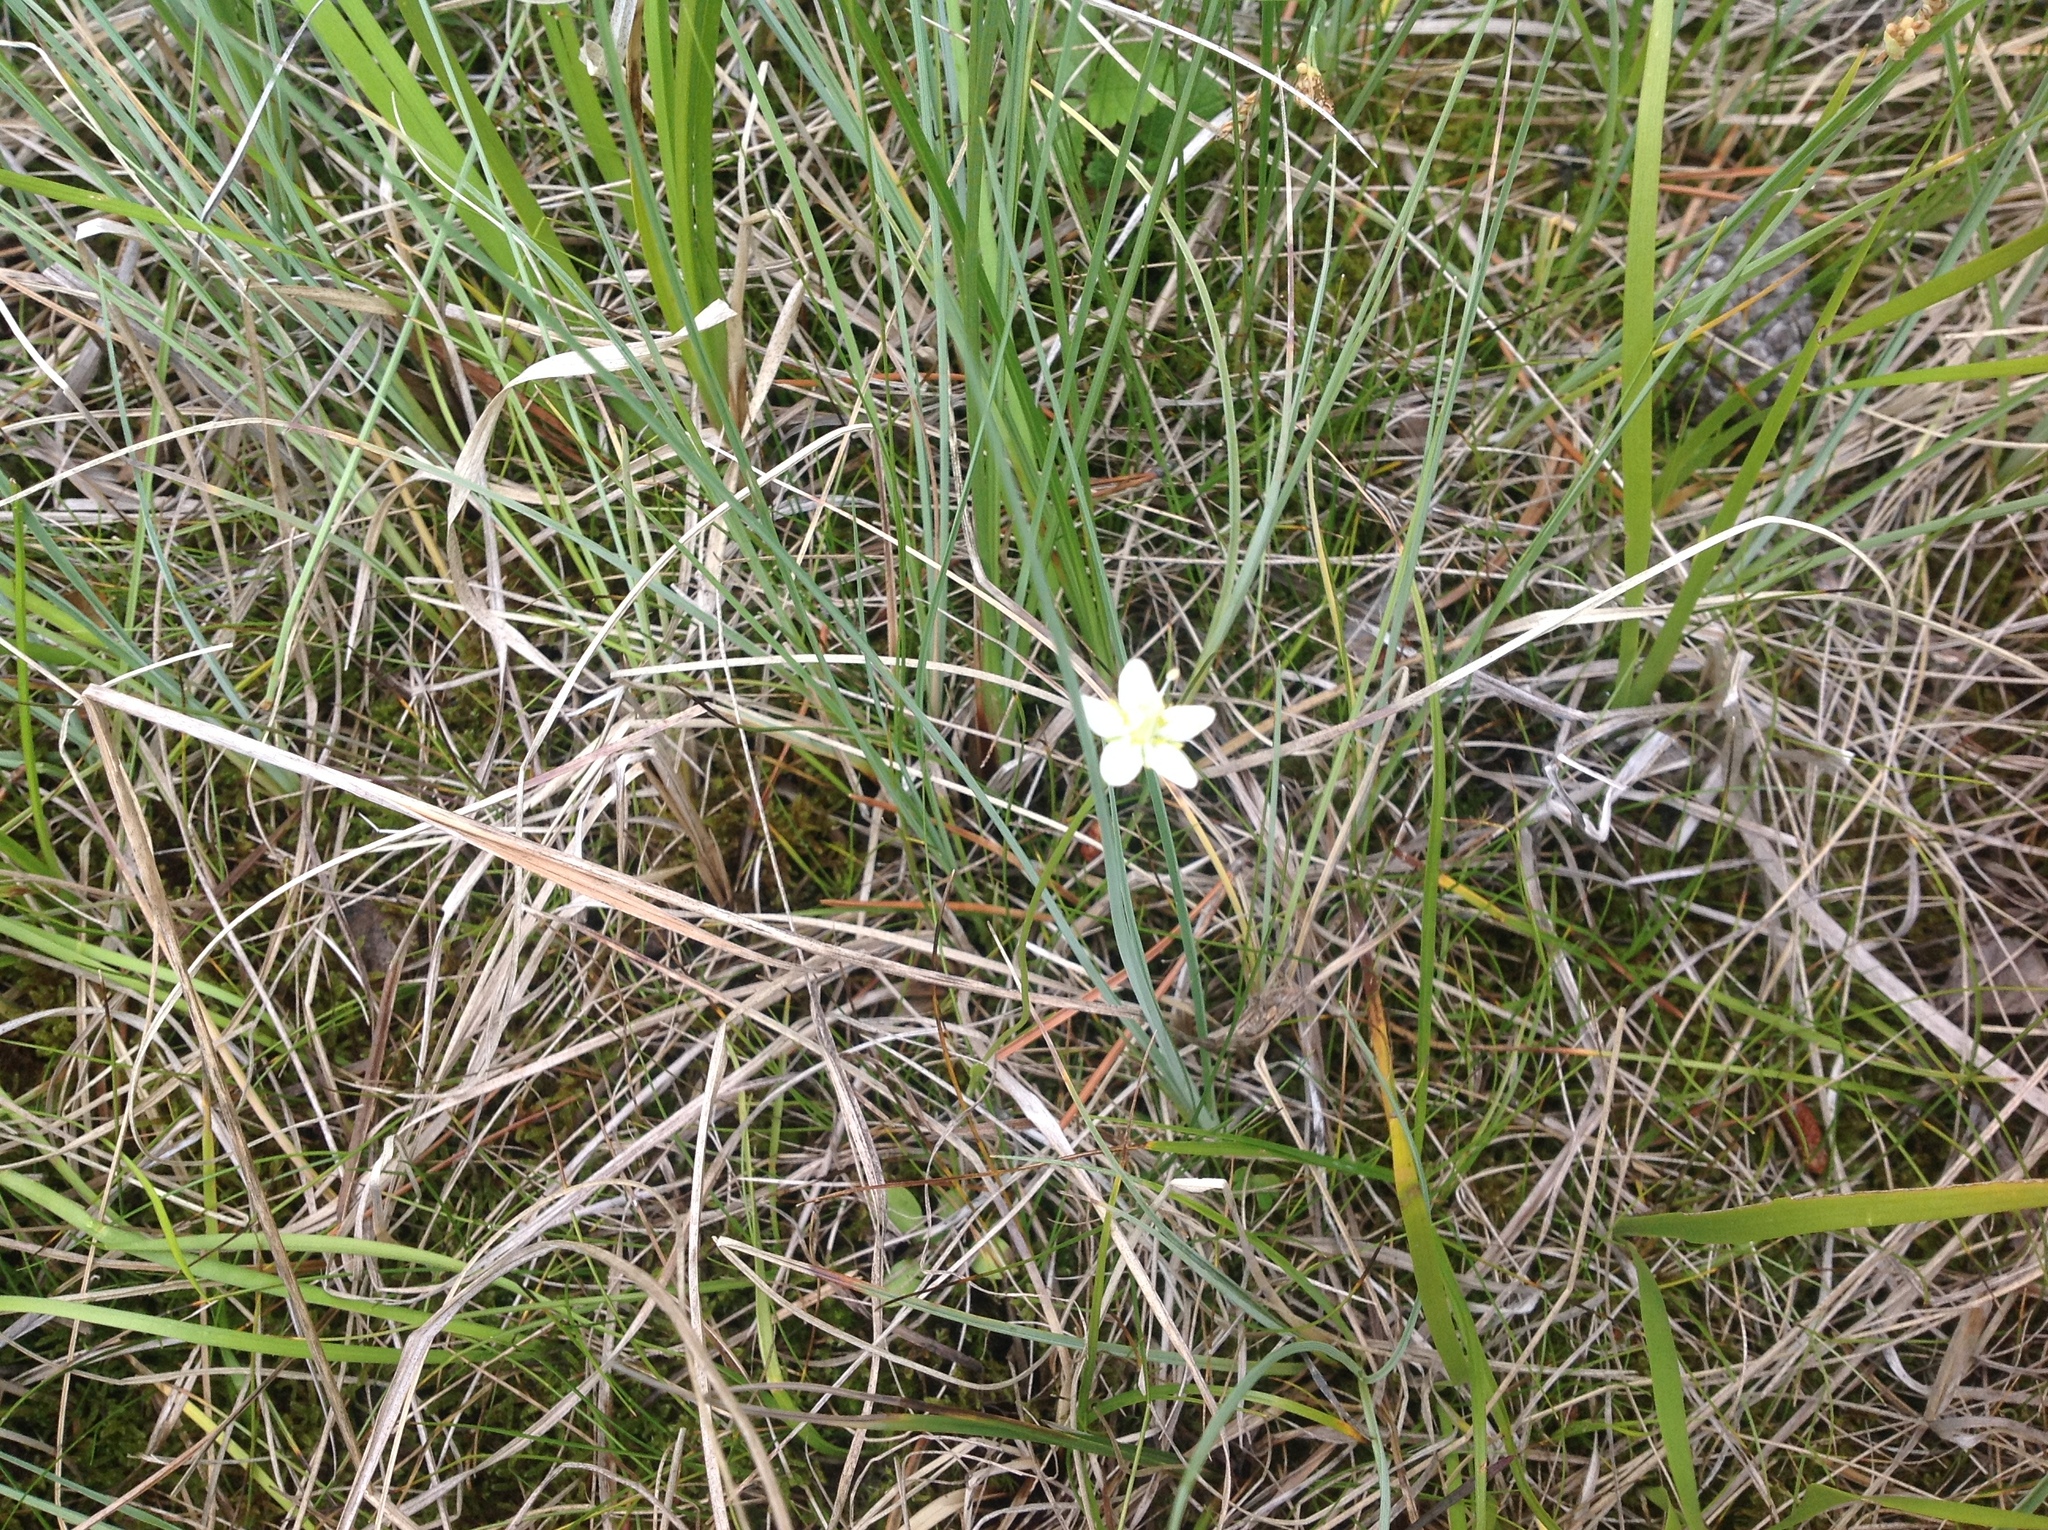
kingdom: Plantae
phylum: Tracheophyta
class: Magnoliopsida
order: Celastrales
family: Parnassiaceae
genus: Parnassia
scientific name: Parnassia palustris
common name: Grass-of-parnassus
